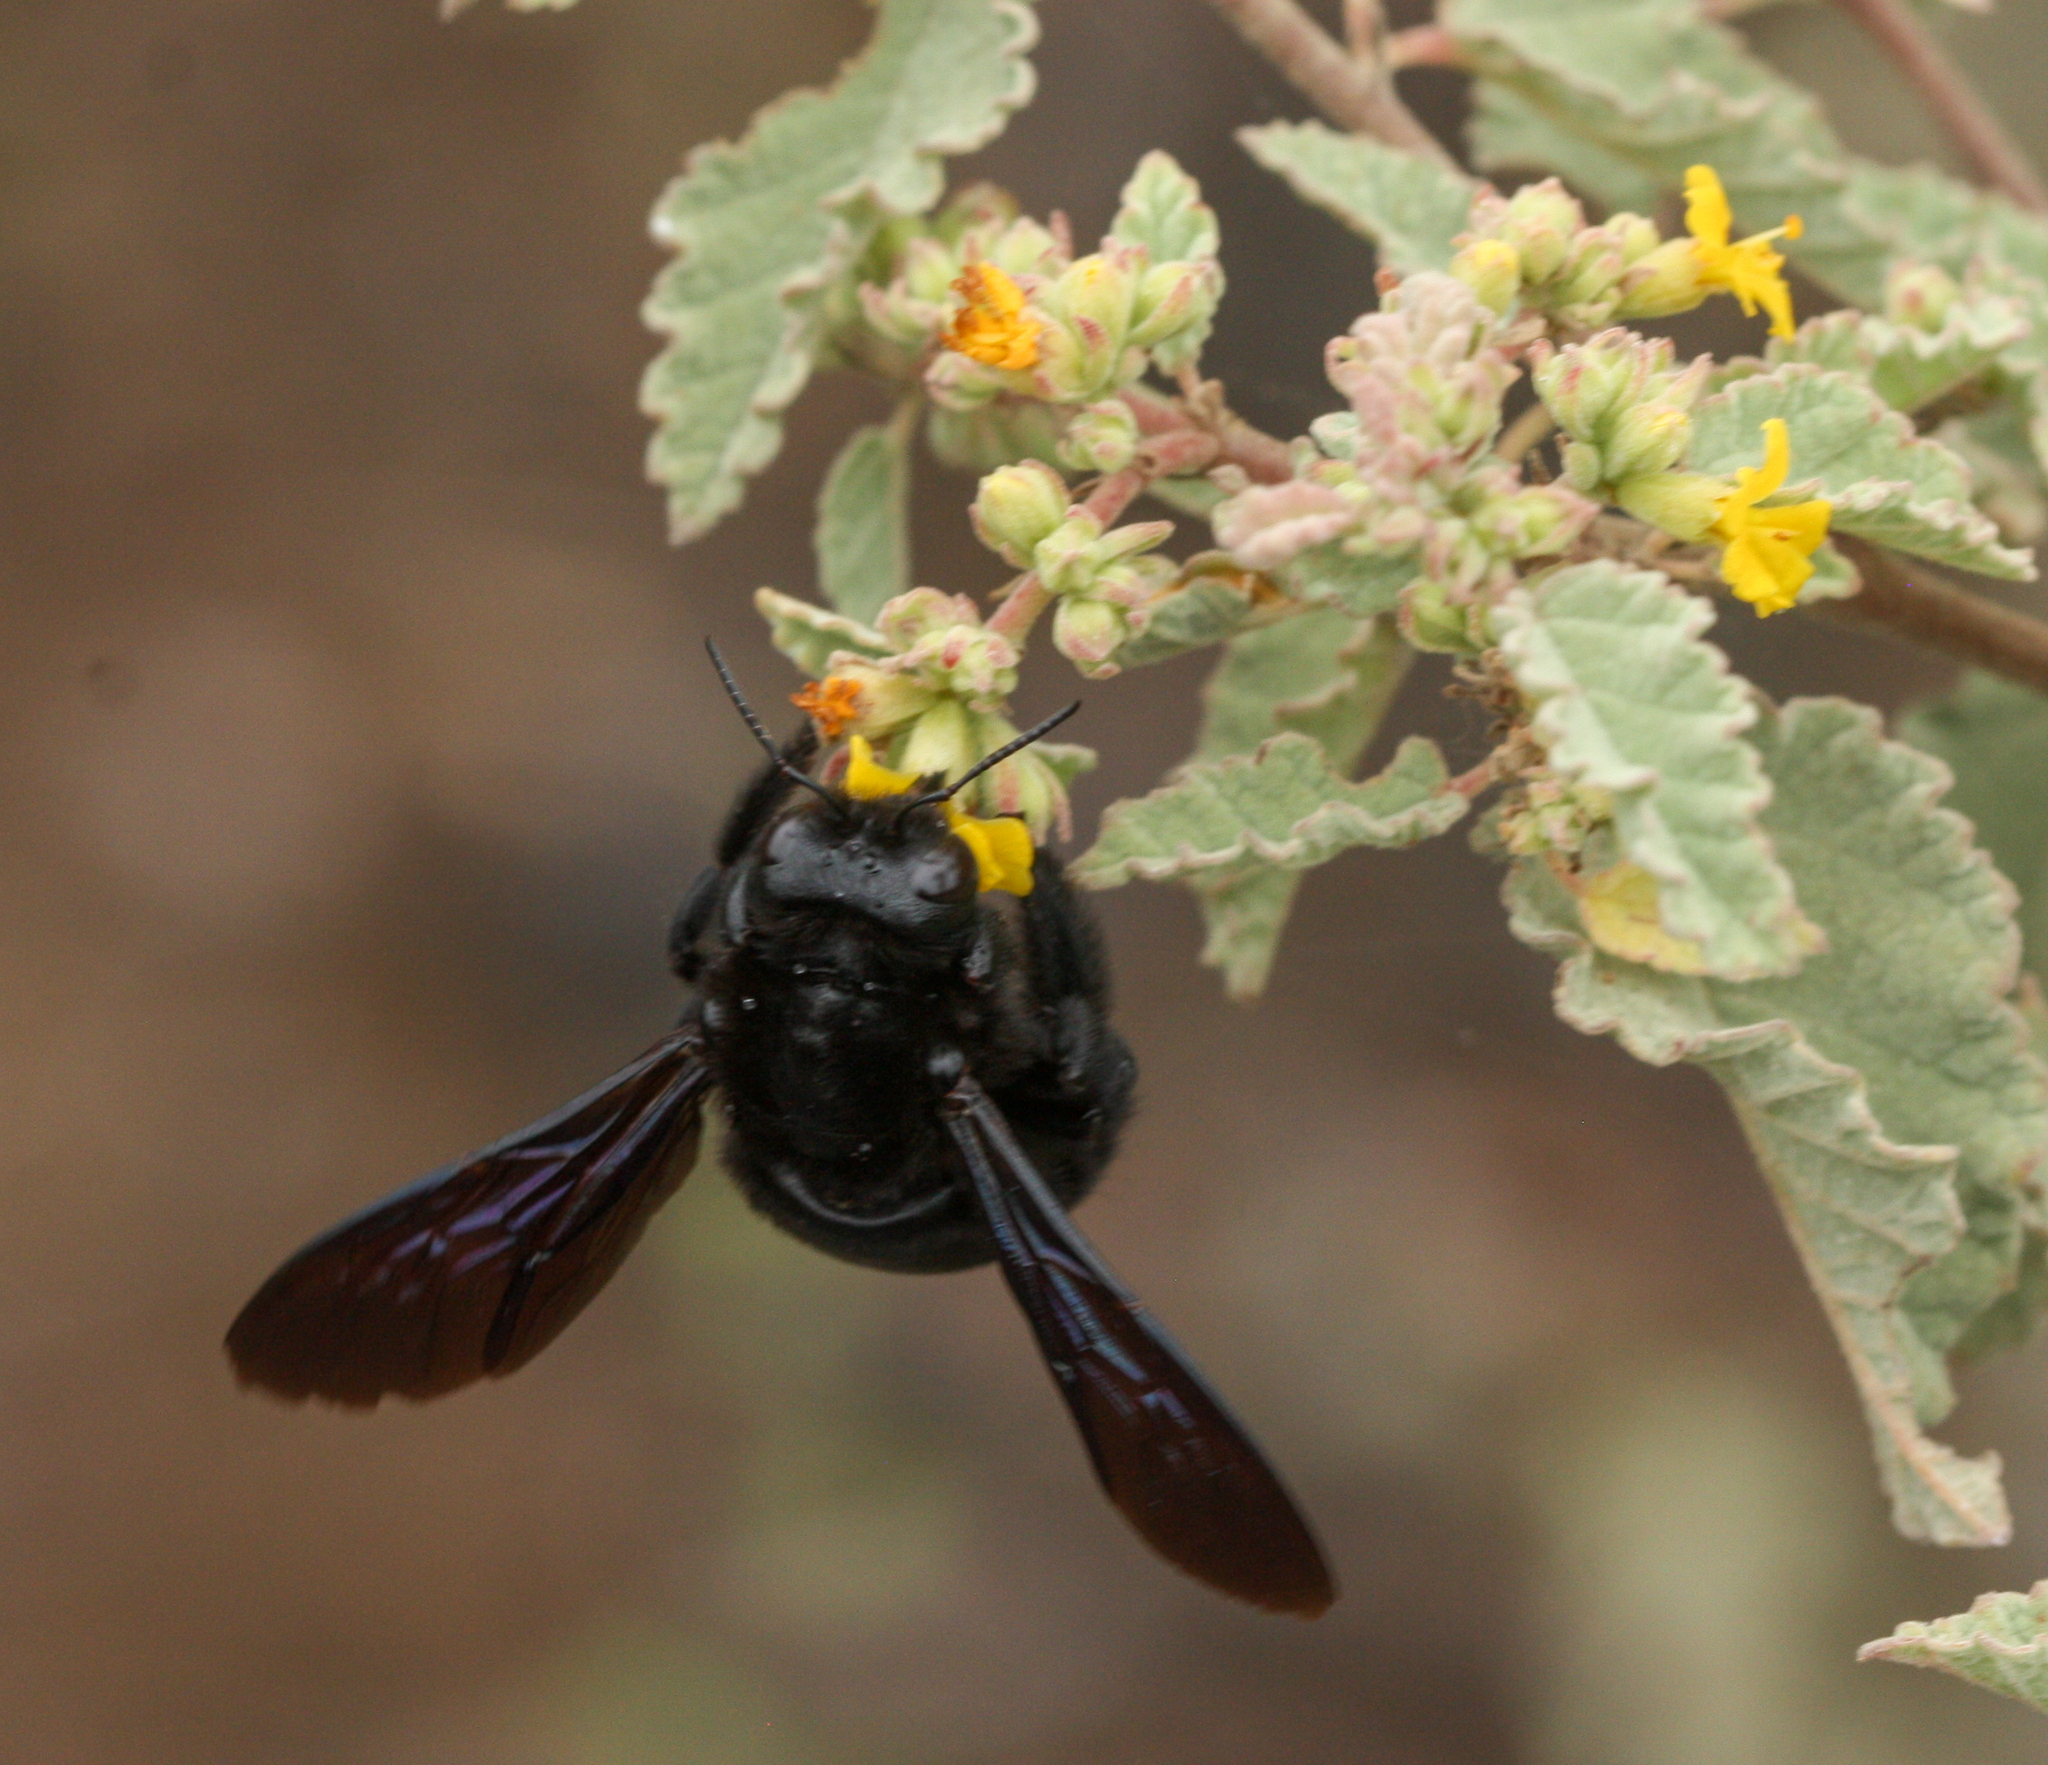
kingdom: Animalia
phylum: Arthropoda
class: Insecta
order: Hymenoptera
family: Apidae
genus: Xylocopa
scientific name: Xylocopa darwini
